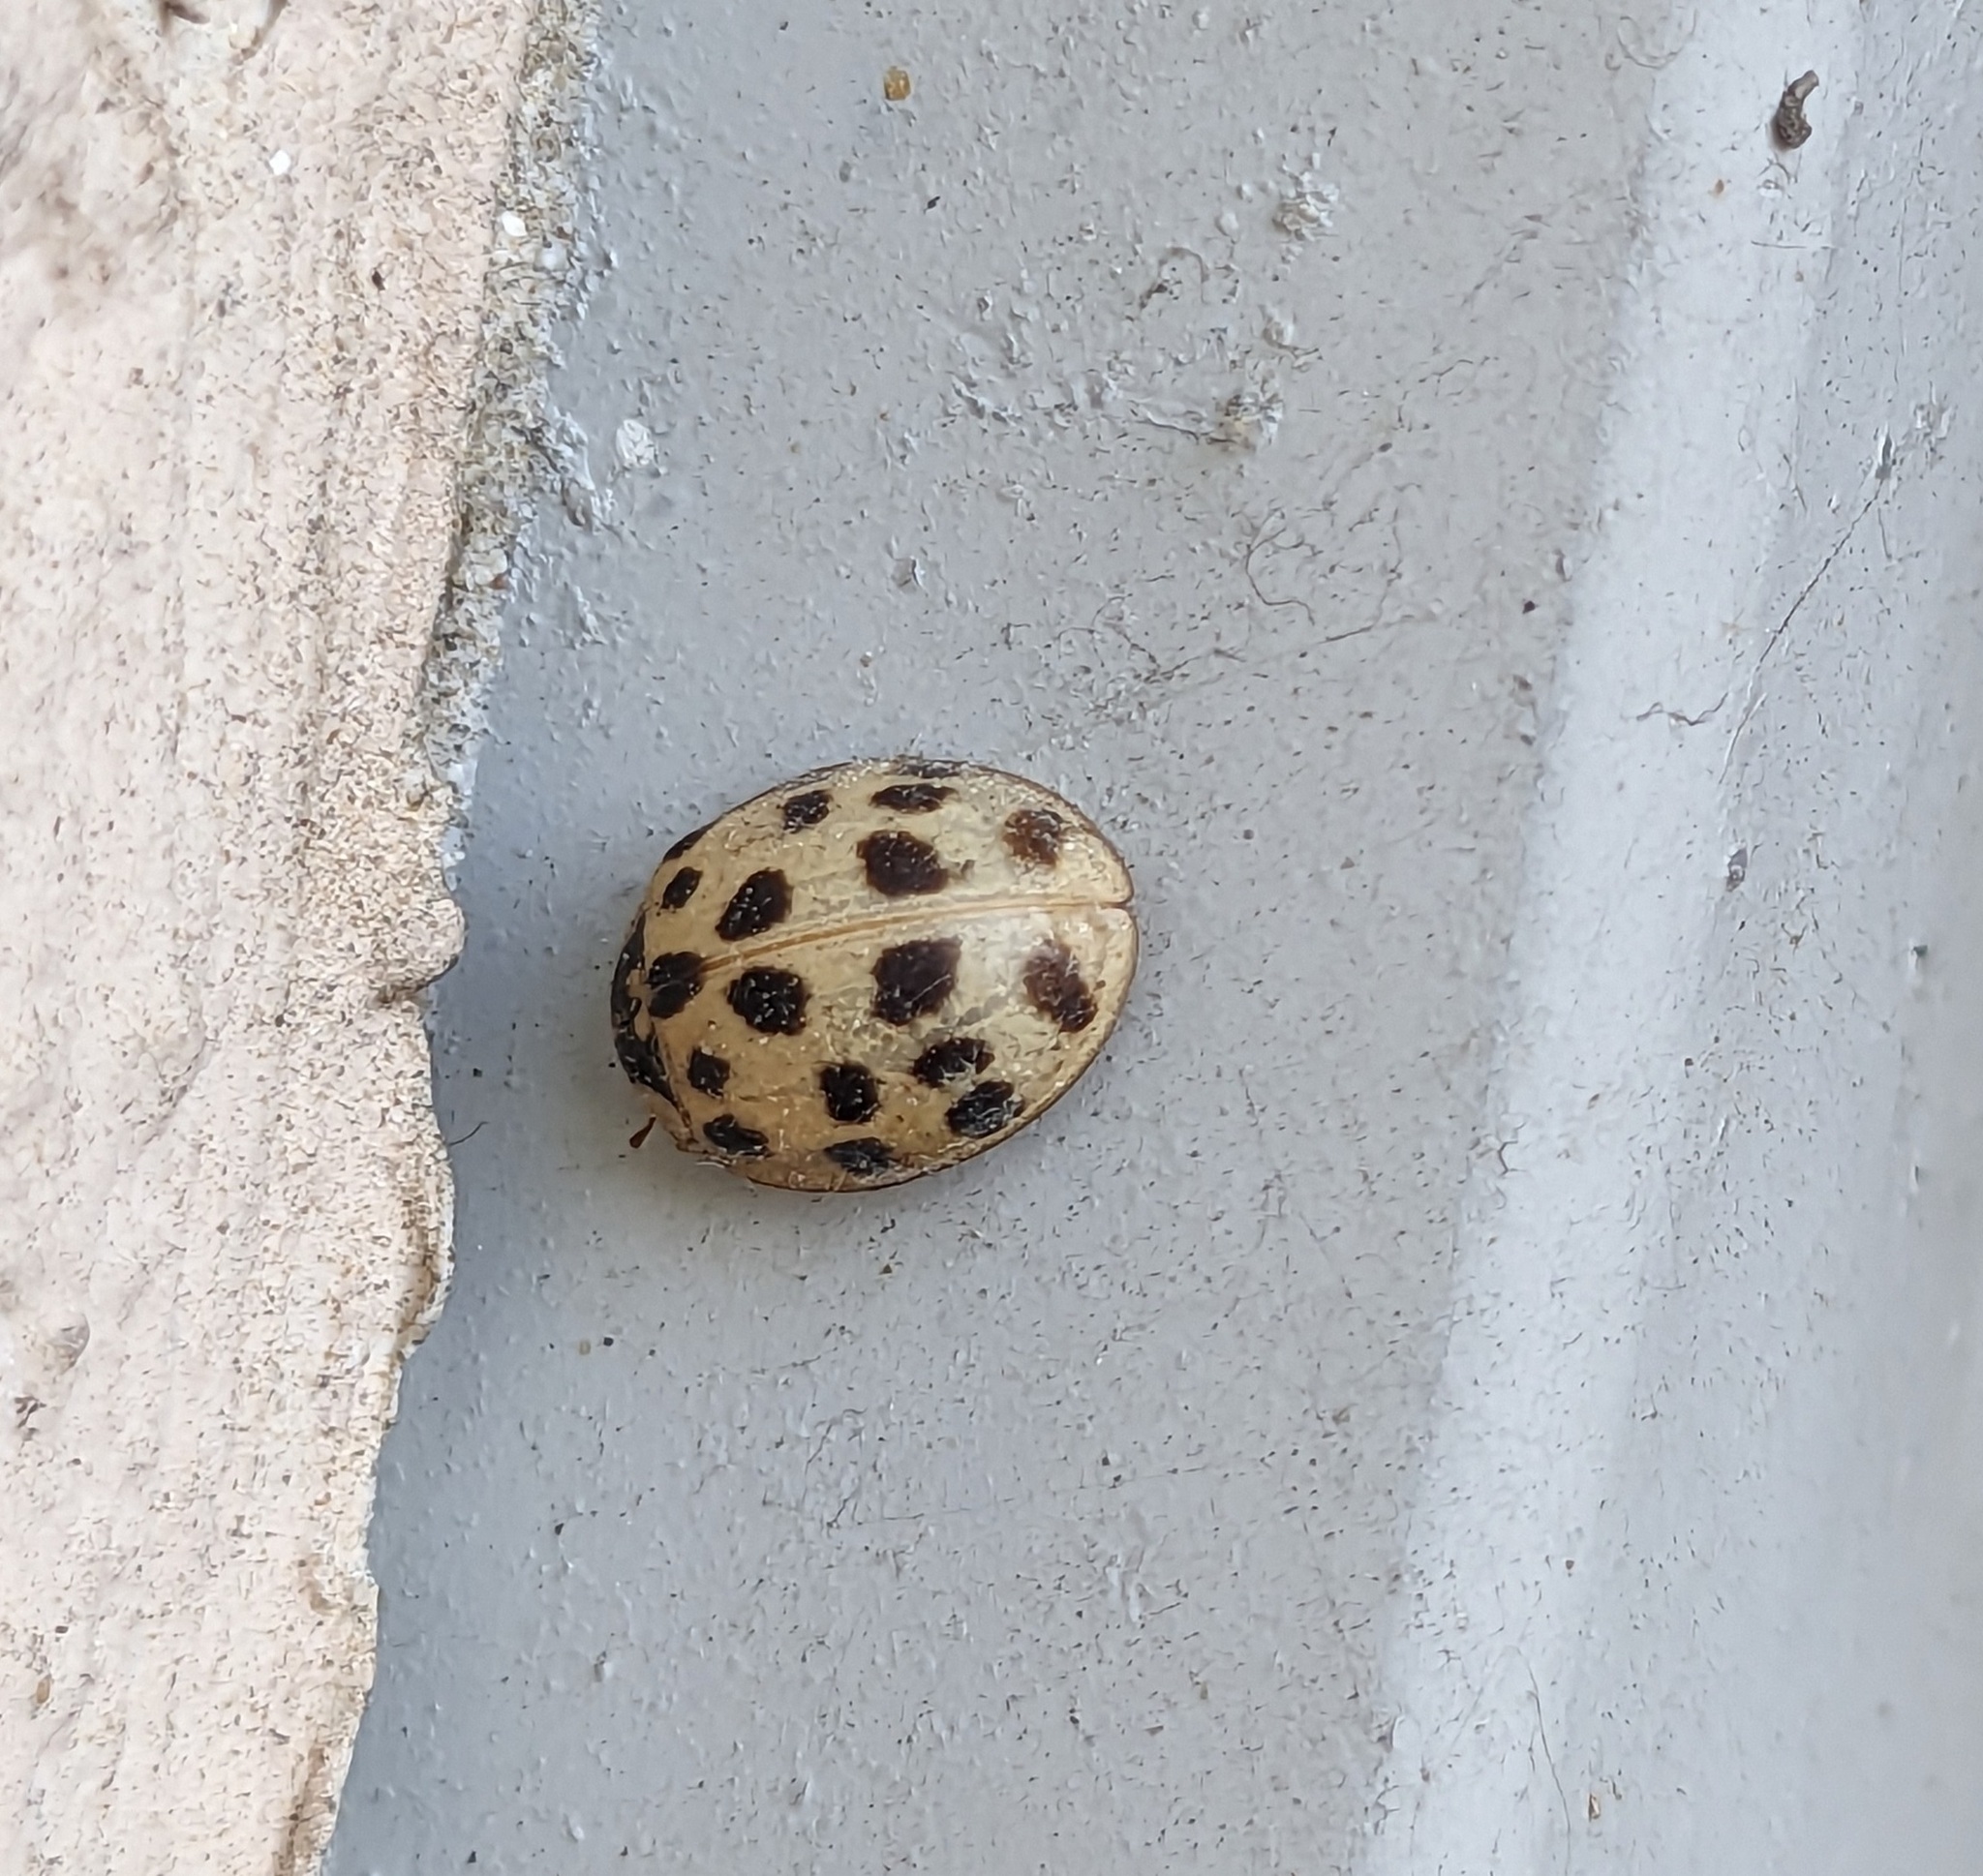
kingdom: Animalia
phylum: Arthropoda
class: Insecta
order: Coleoptera
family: Coccinellidae
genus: Harmonia
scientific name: Harmonia axyridis
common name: Harlequin ladybird
